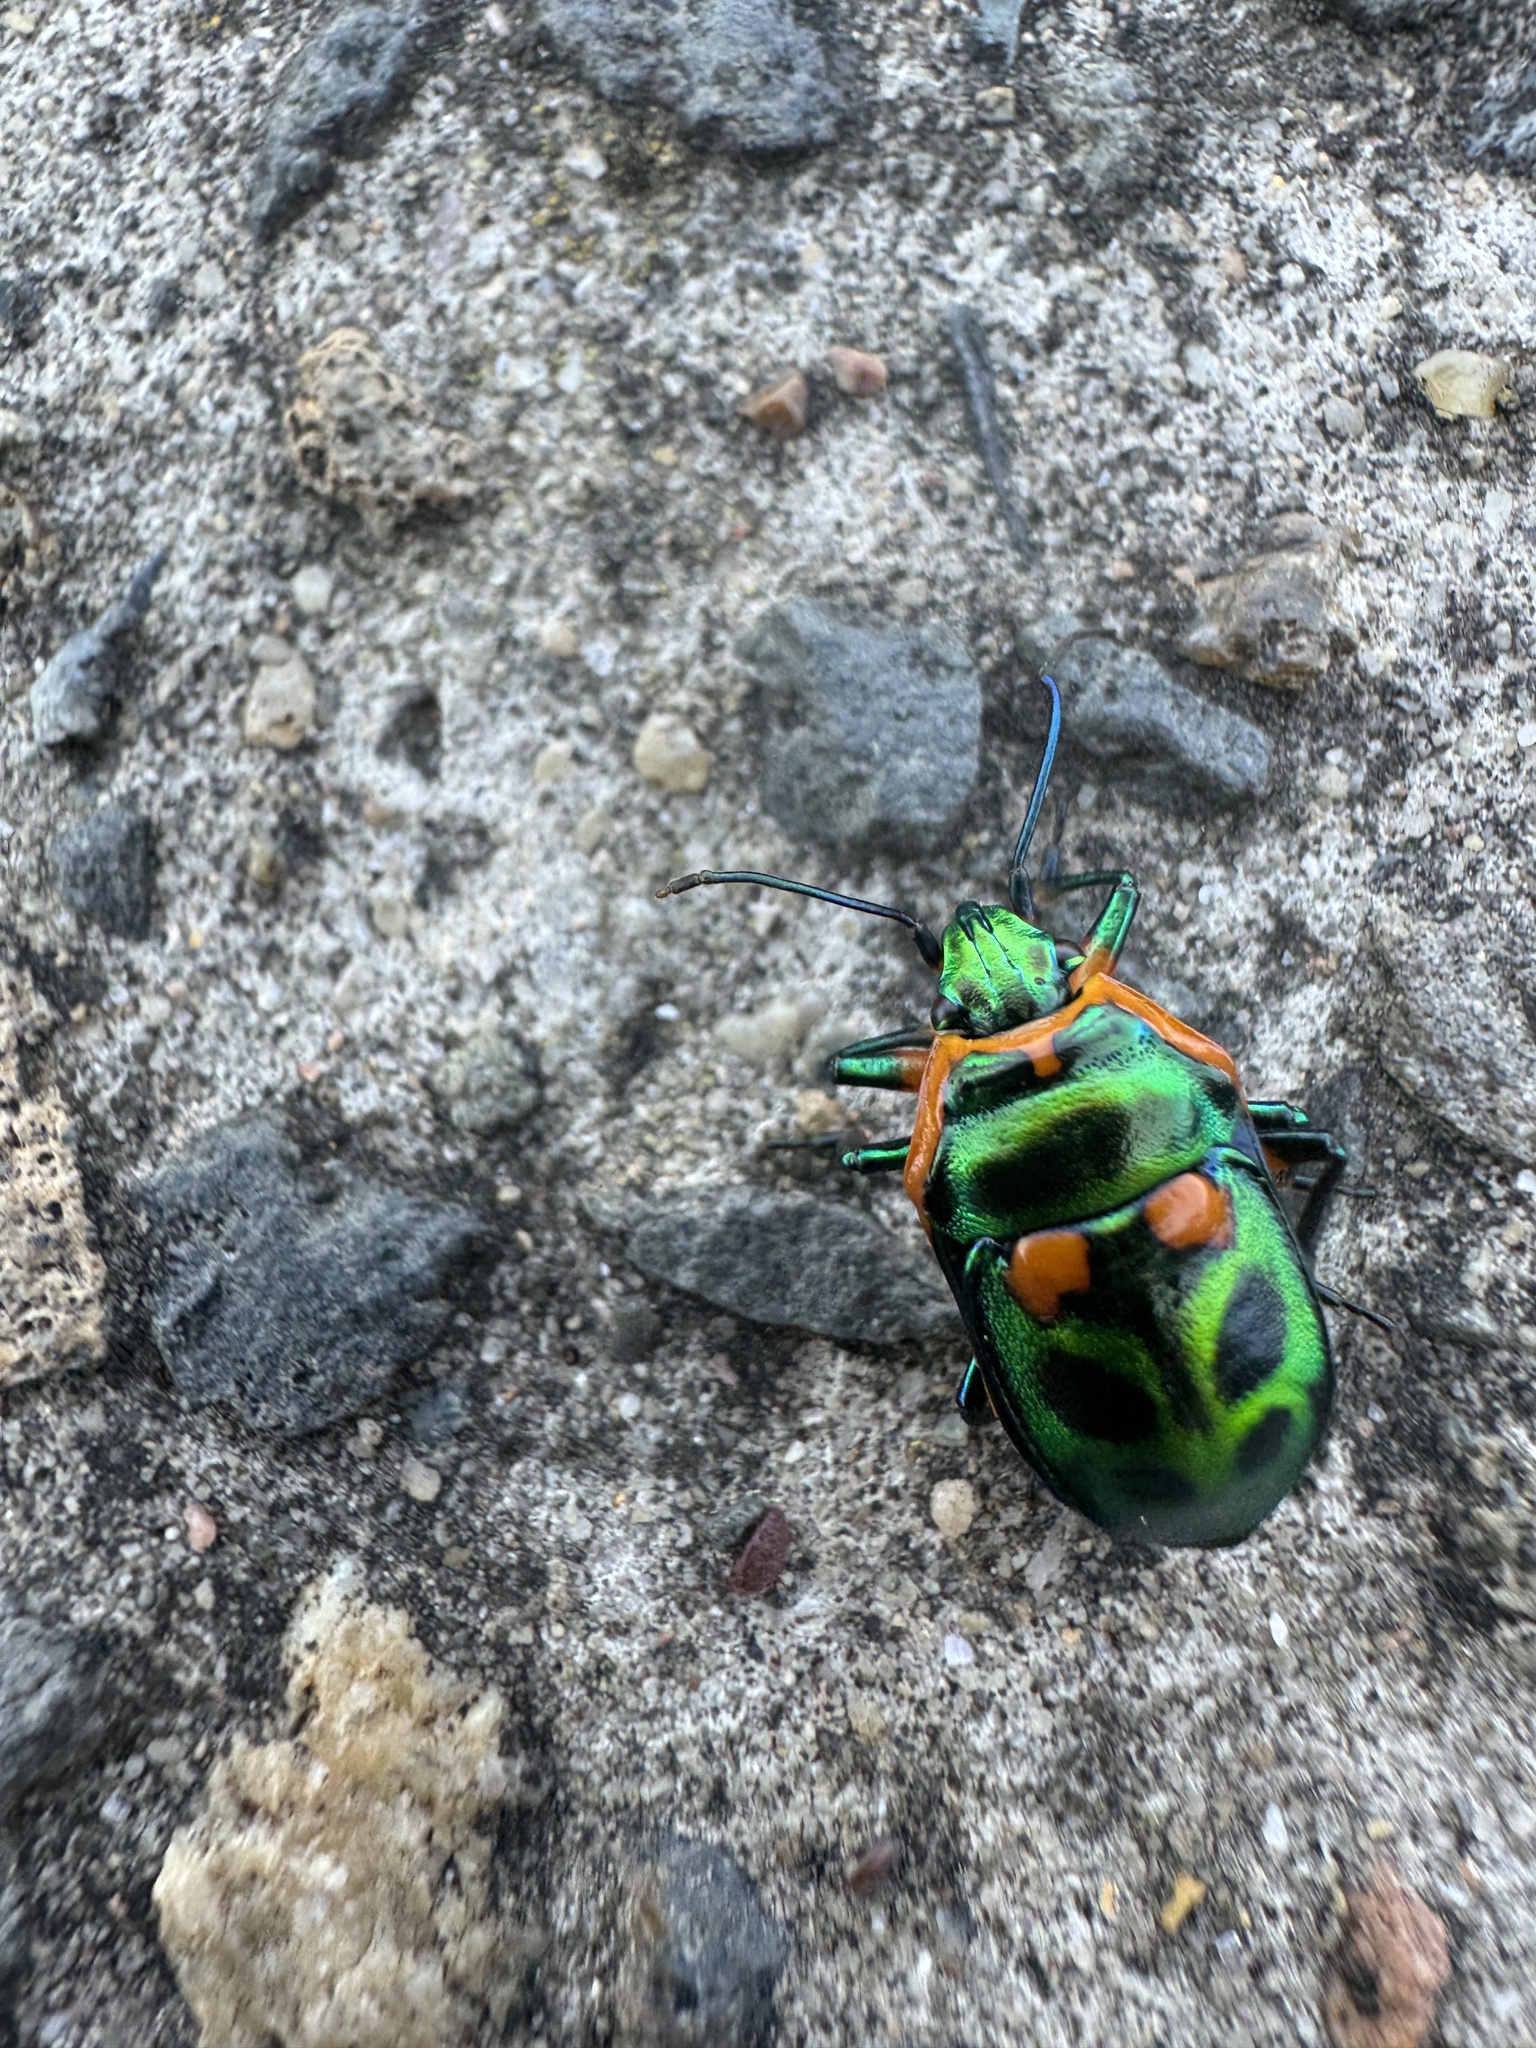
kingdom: Animalia
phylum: Arthropoda
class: Insecta
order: Hemiptera
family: Scutelleridae
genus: Scutiphora
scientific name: Scutiphora pedicellata
